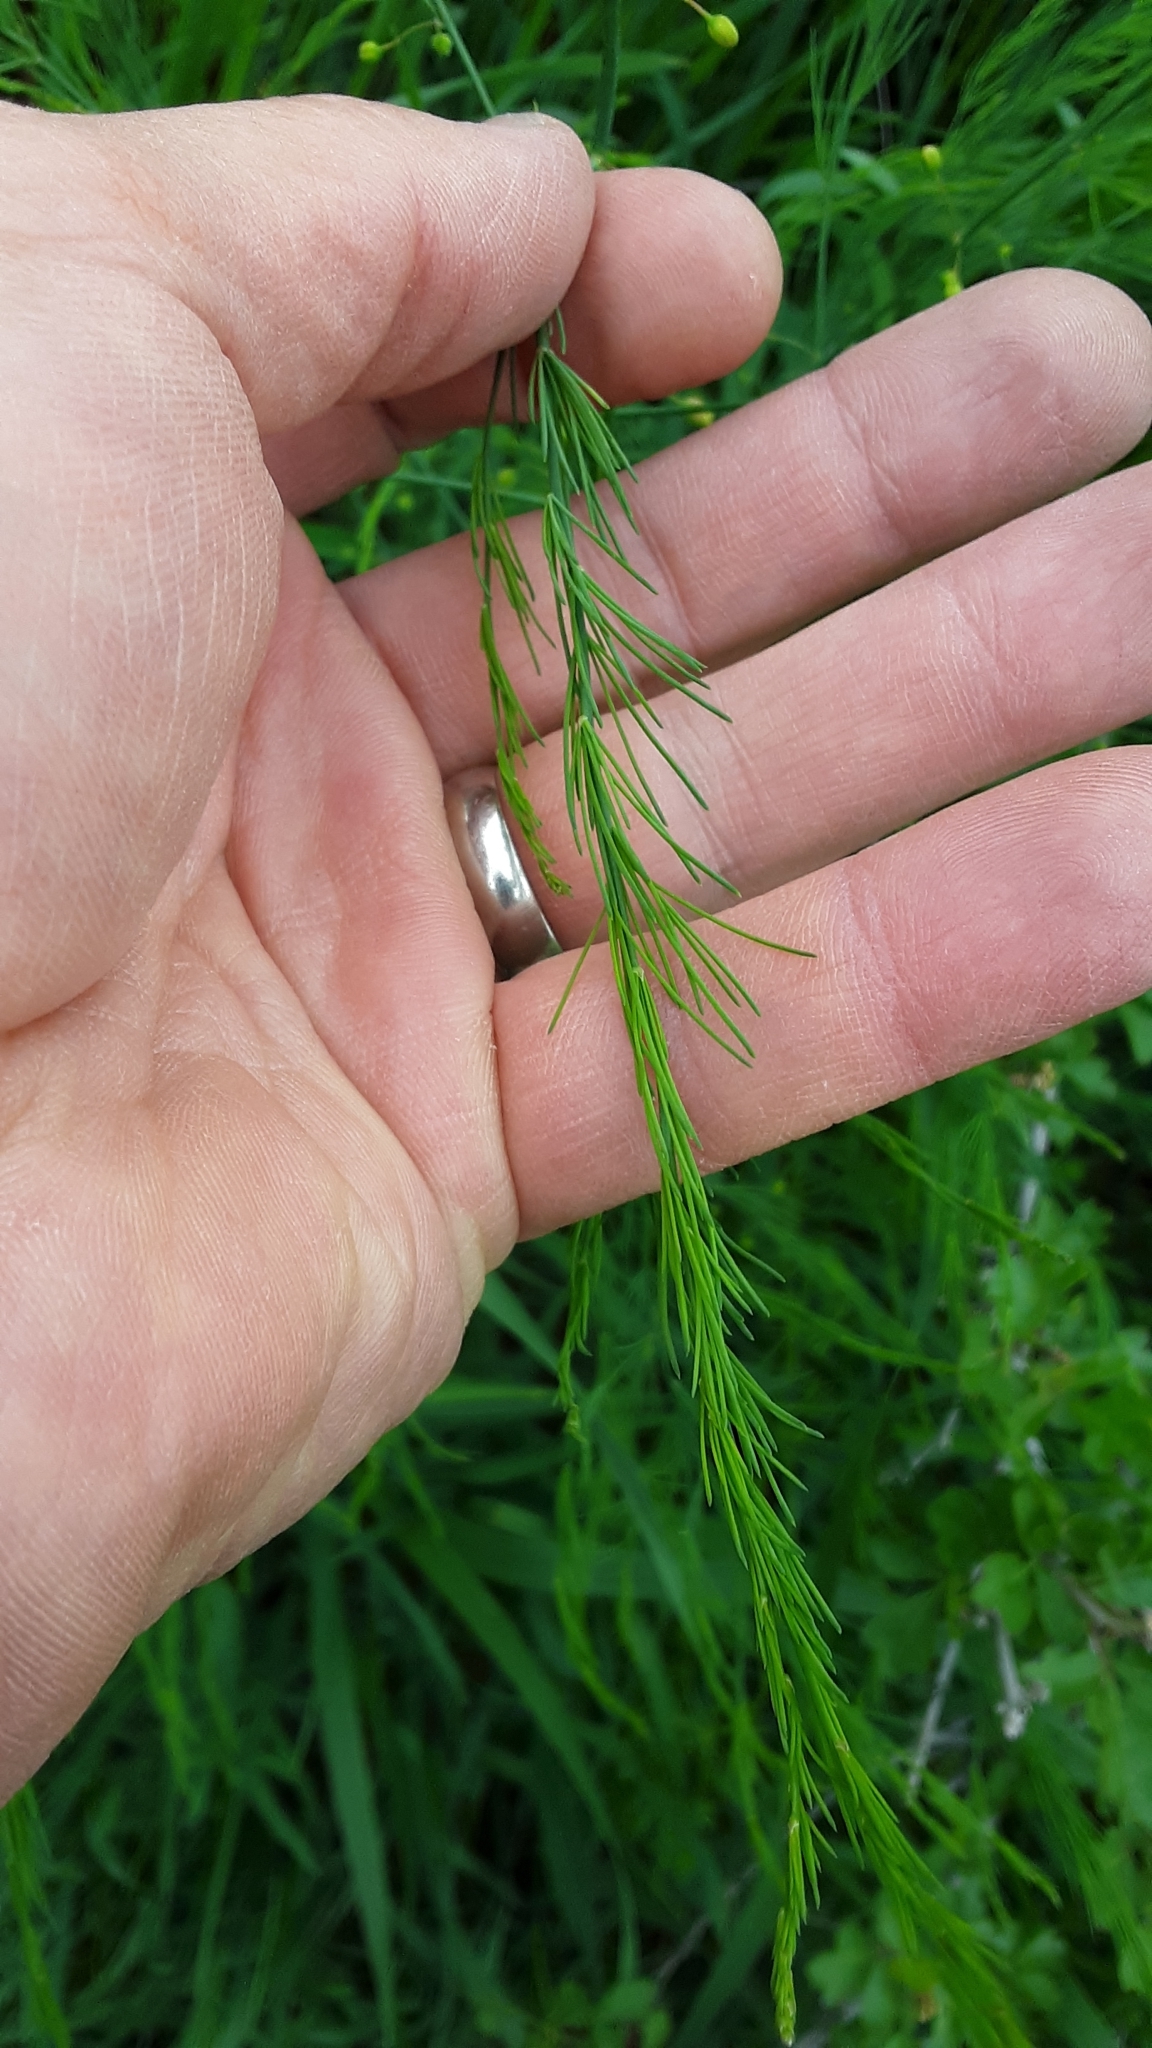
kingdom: Plantae
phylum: Tracheophyta
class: Liliopsida
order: Asparagales
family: Asparagaceae
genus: Asparagus
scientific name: Asparagus officinalis
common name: Garden asparagus
